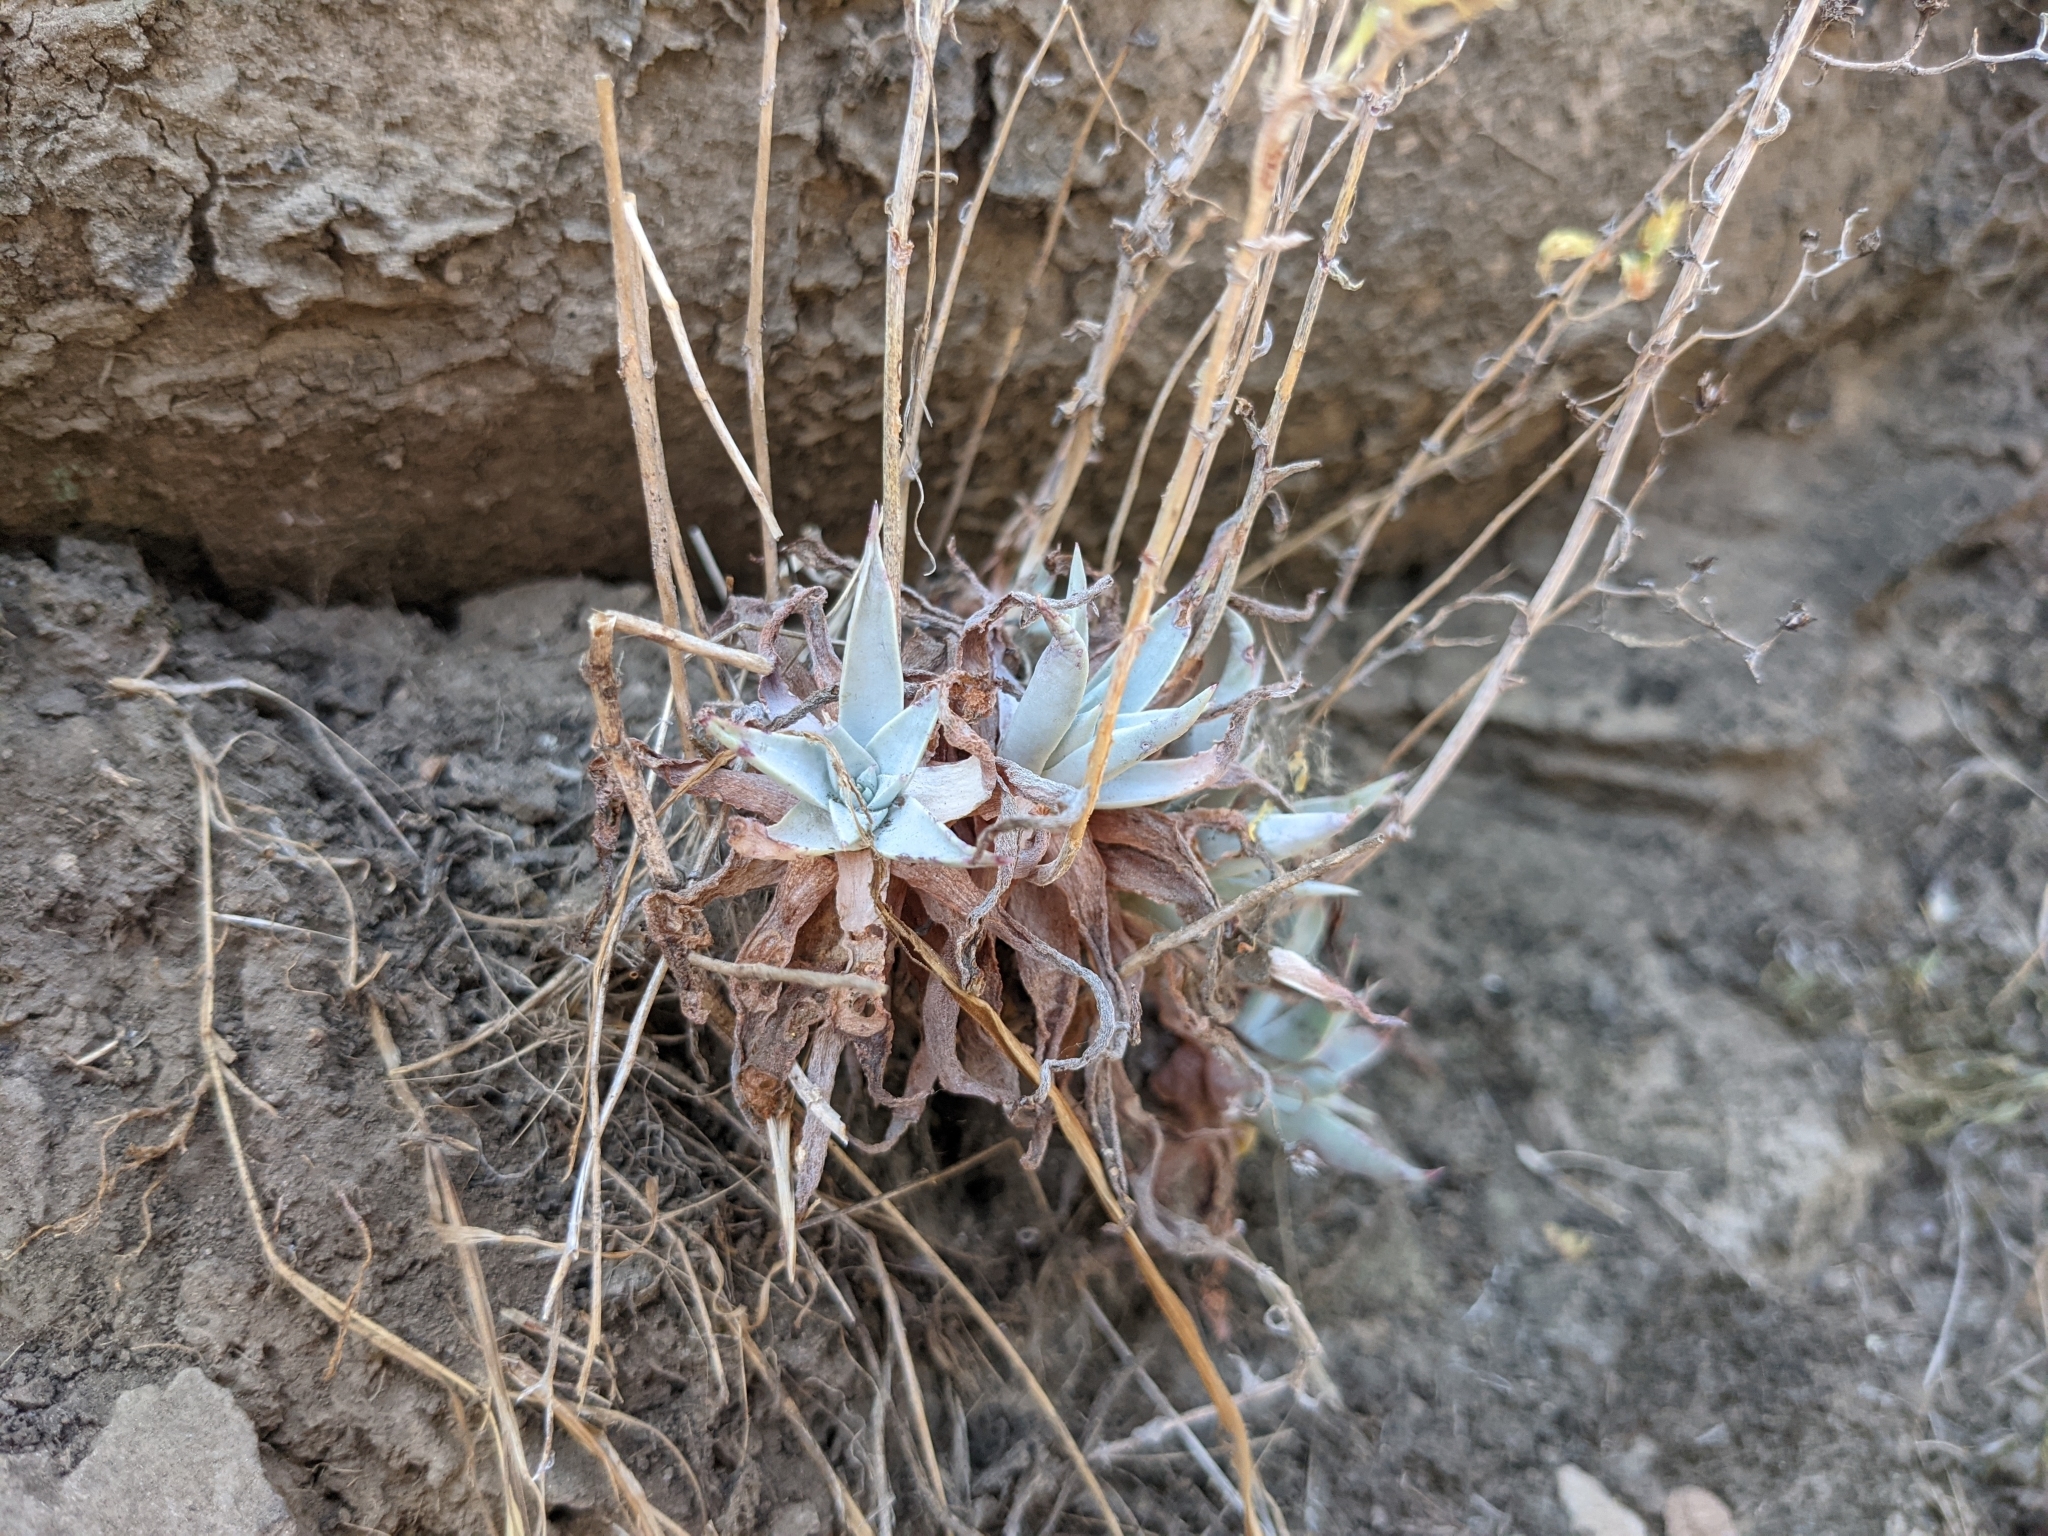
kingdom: Plantae
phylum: Tracheophyta
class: Magnoliopsida
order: Saxifragales
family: Crassulaceae
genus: Dudleya
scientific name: Dudleya verityi
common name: Verity dudleya
